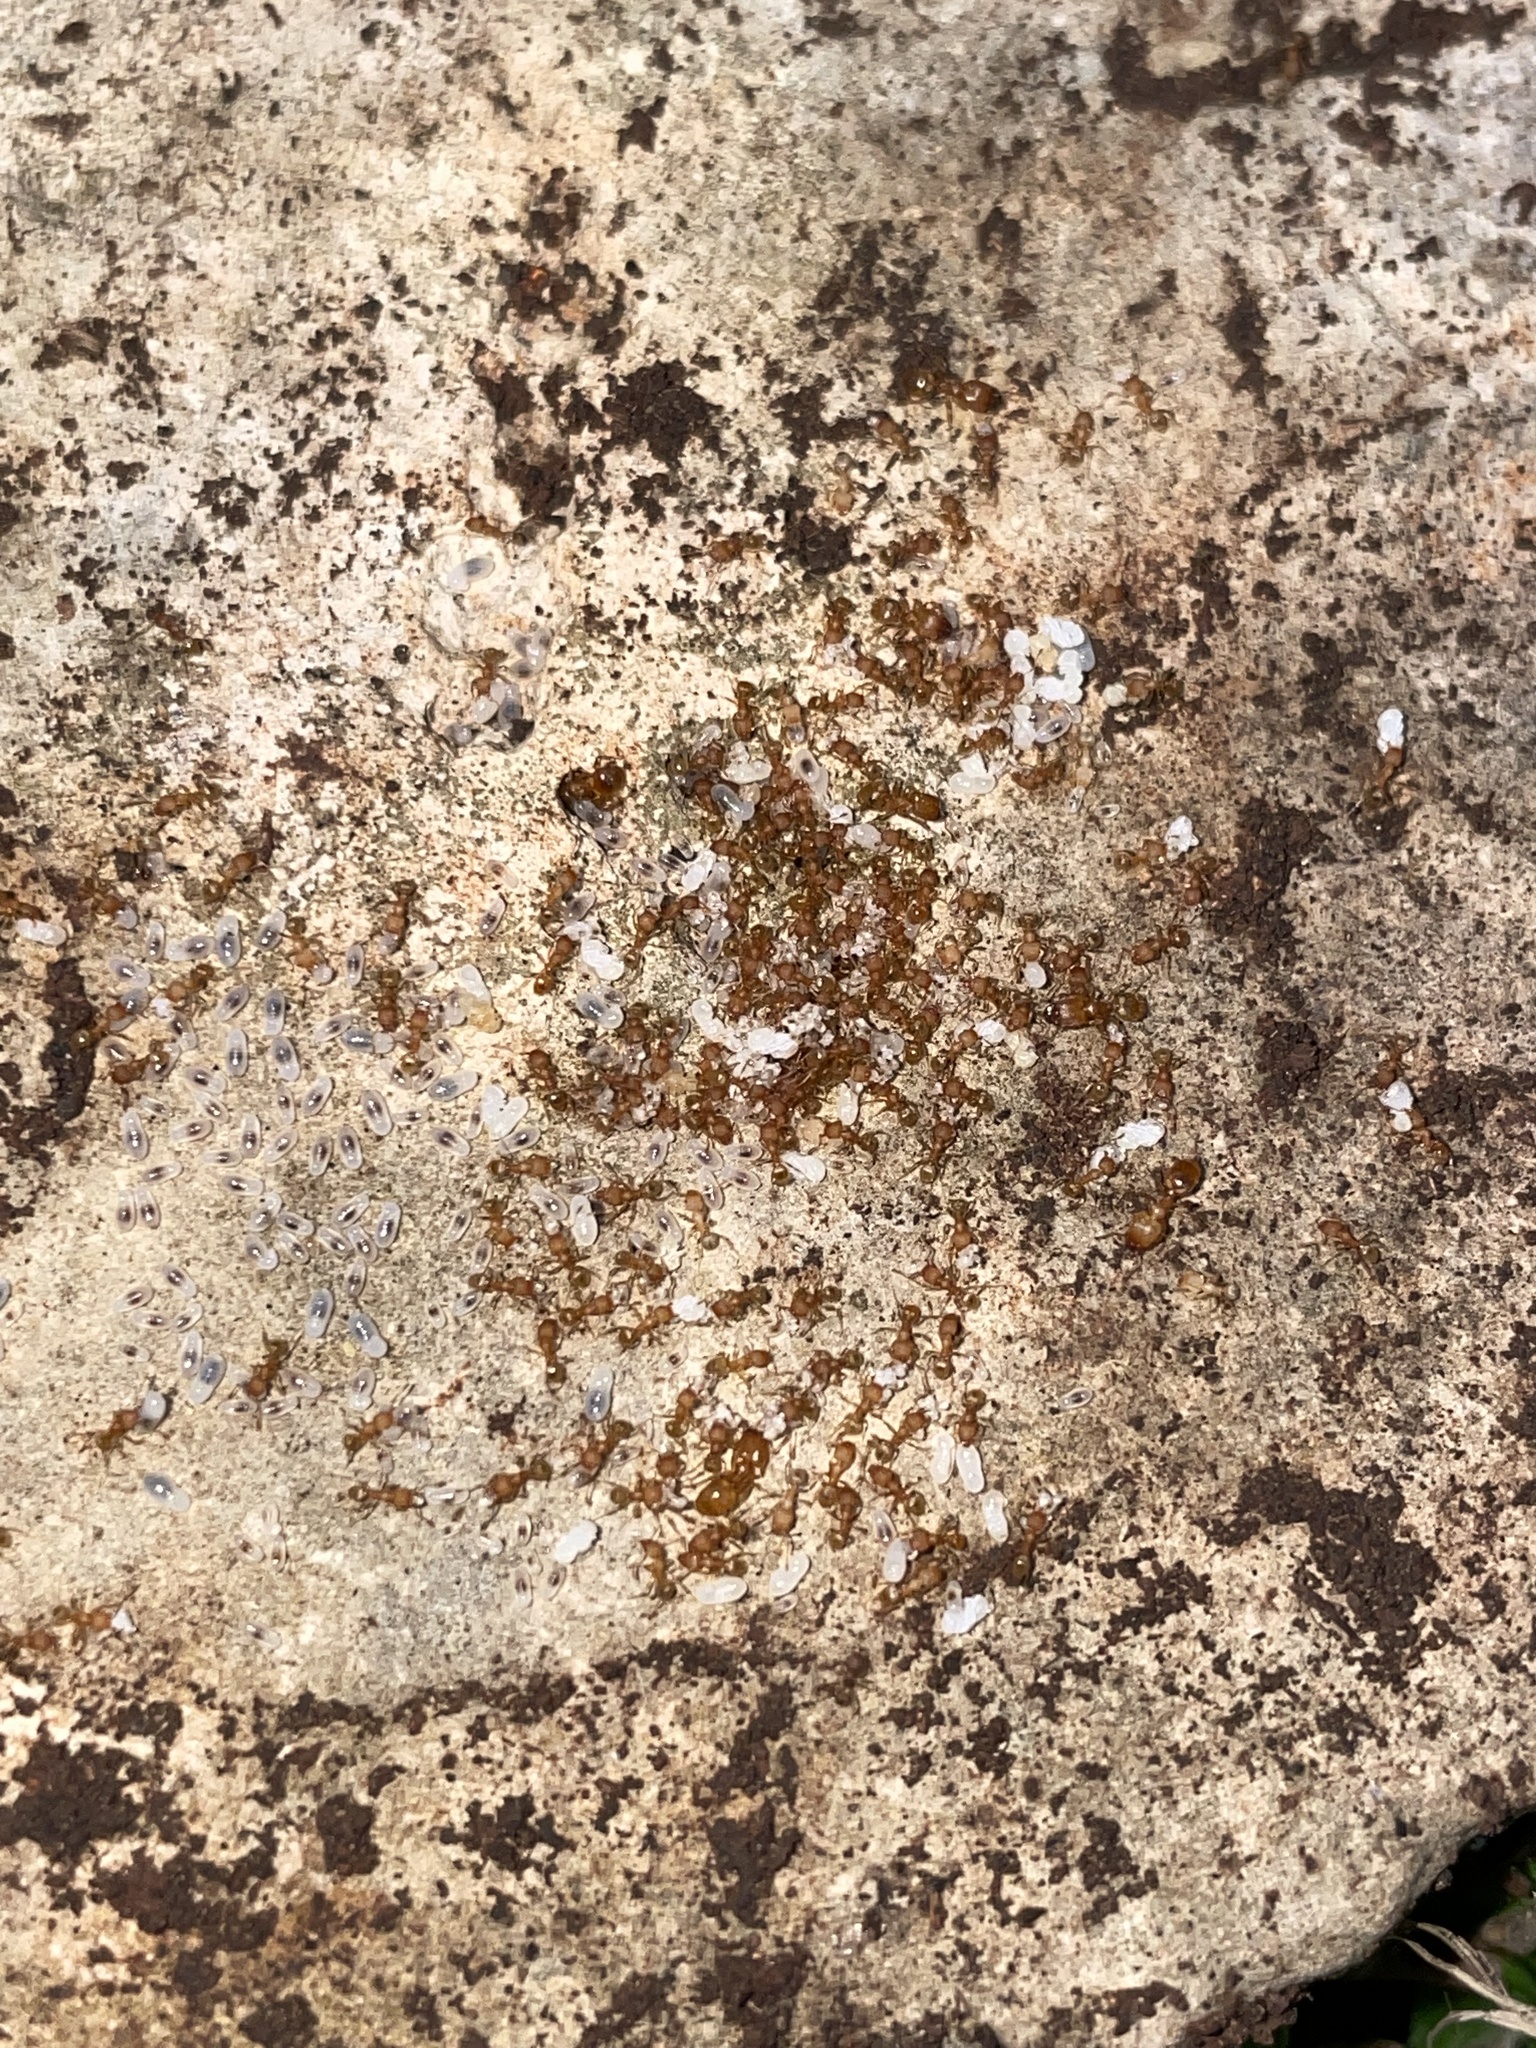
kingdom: Animalia
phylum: Arthropoda
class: Insecta
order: Hymenoptera
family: Formicidae
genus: Pheidole
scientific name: Pheidole bilimeki
